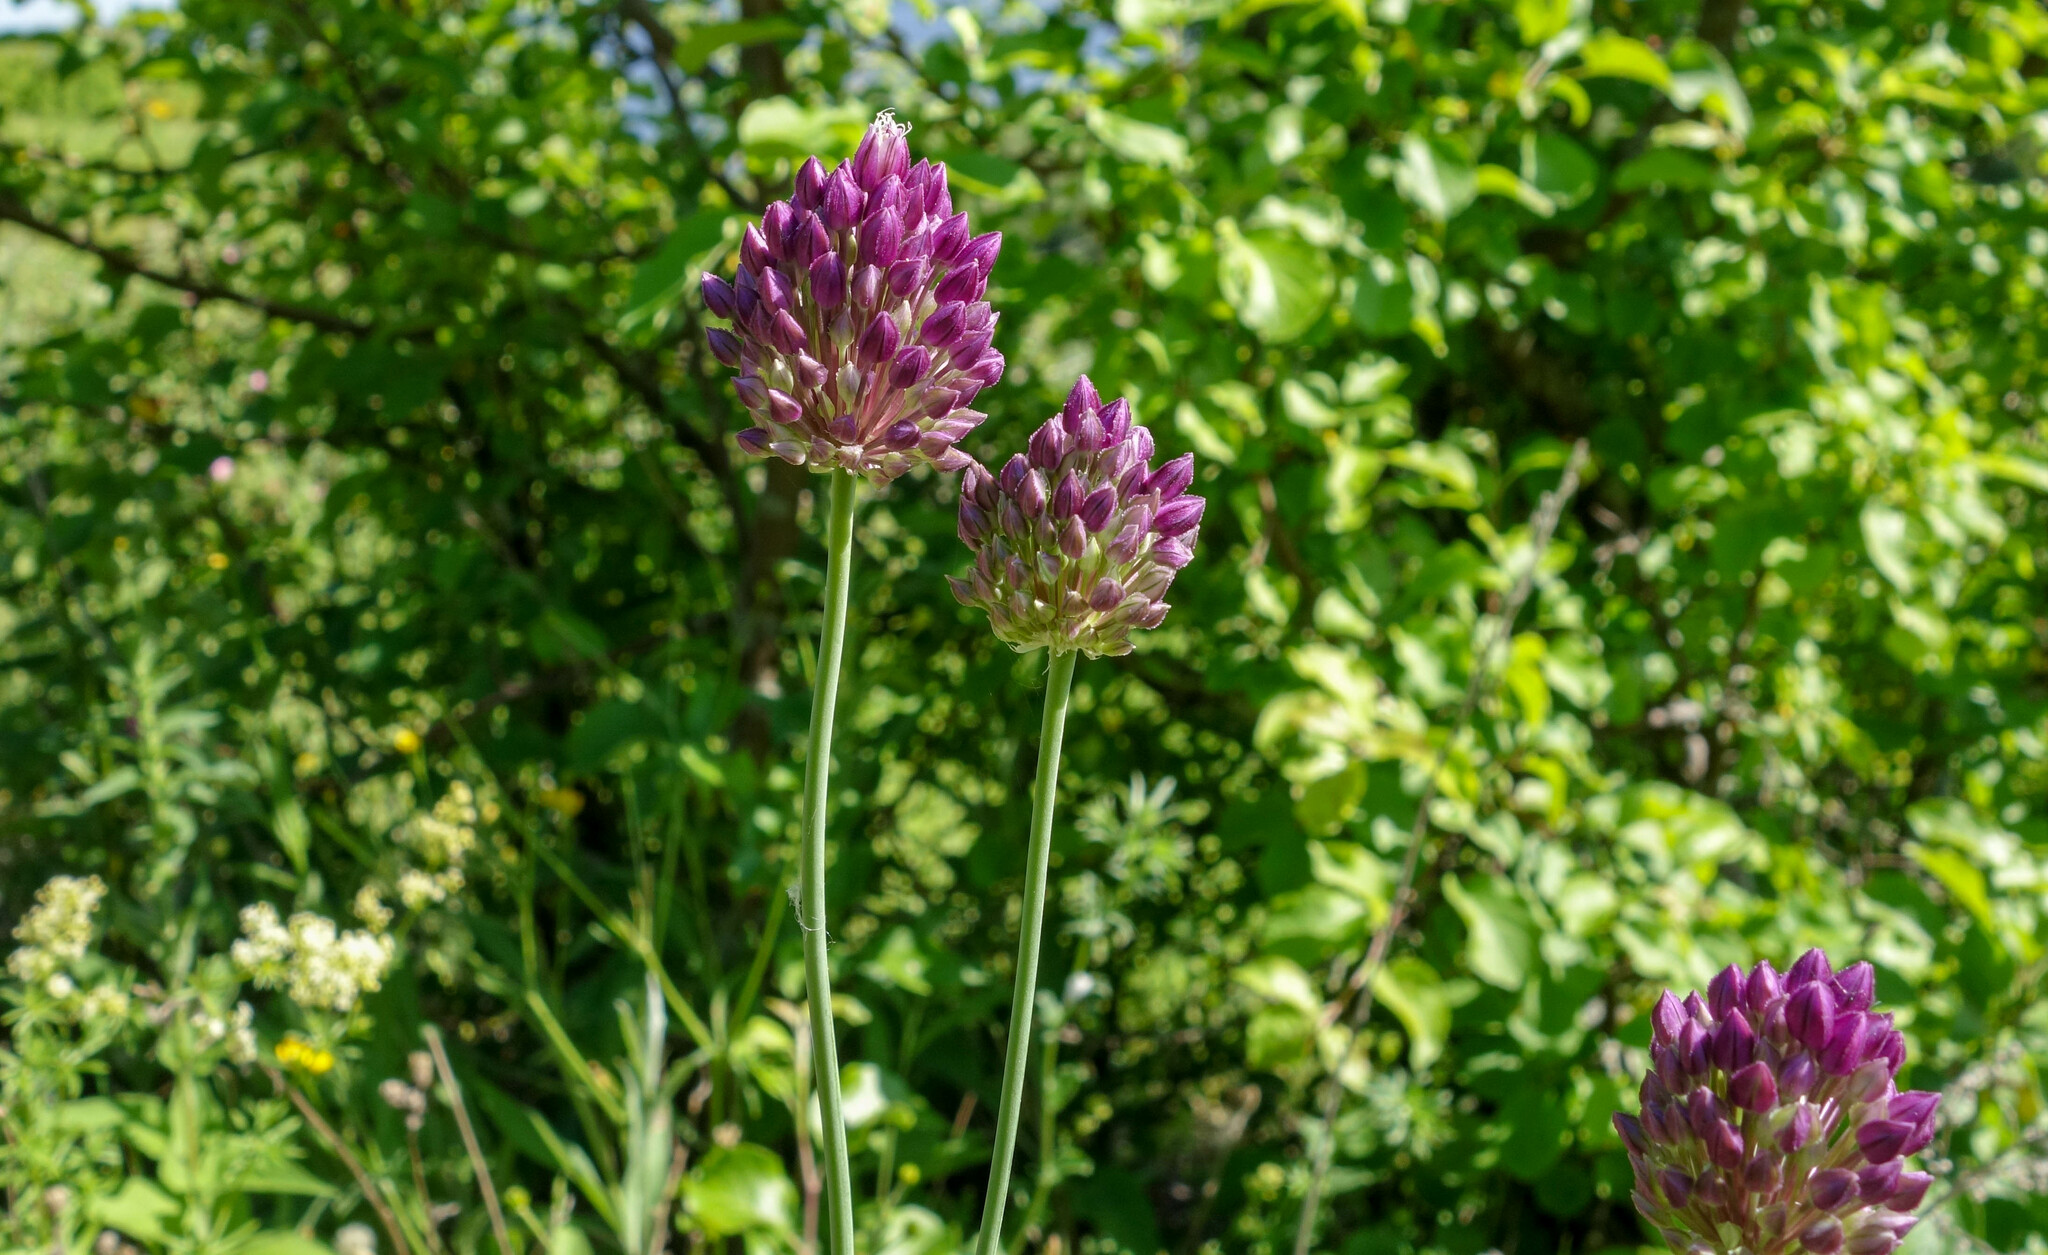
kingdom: Plantae
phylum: Tracheophyta
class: Liliopsida
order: Asparagales
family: Amaryllidaceae
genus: Allium
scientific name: Allium rotundum
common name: Sand leek
